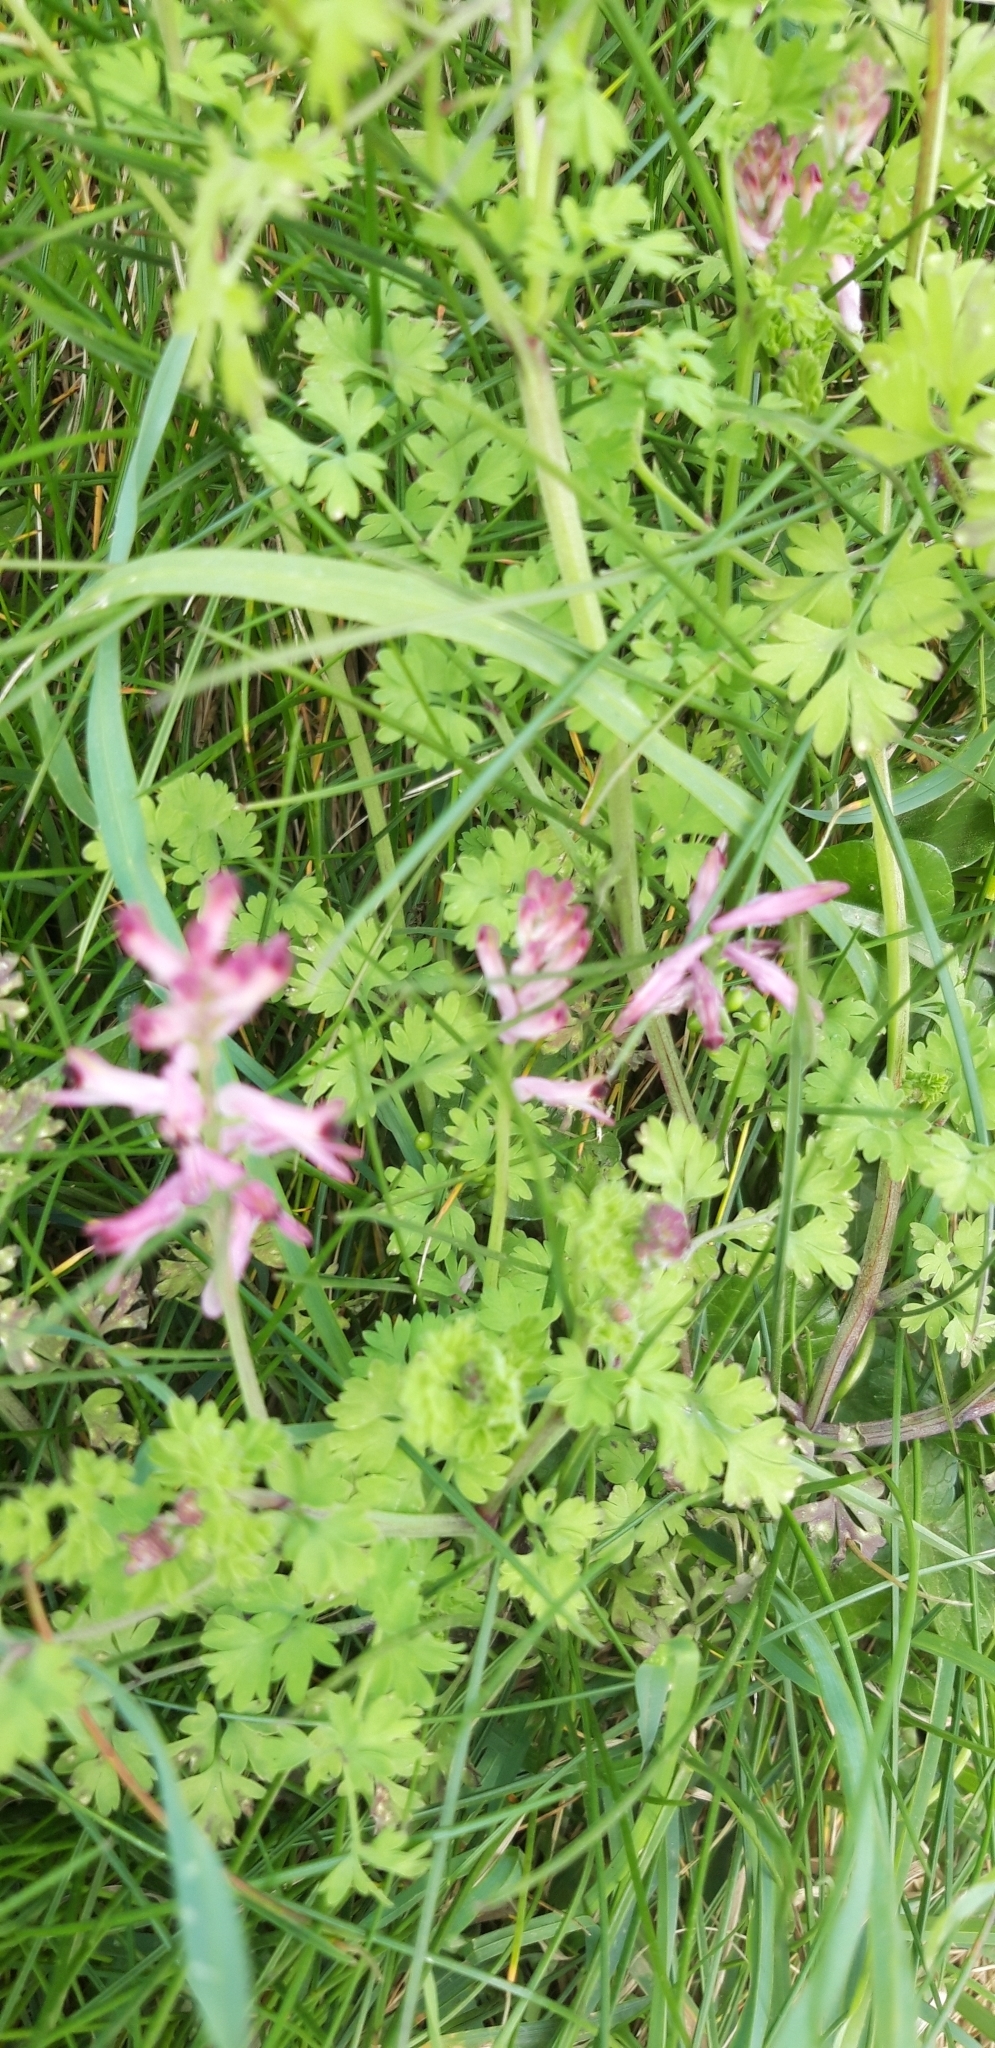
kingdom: Plantae
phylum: Tracheophyta
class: Magnoliopsida
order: Ranunculales
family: Papaveraceae
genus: Fumaria
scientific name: Fumaria
